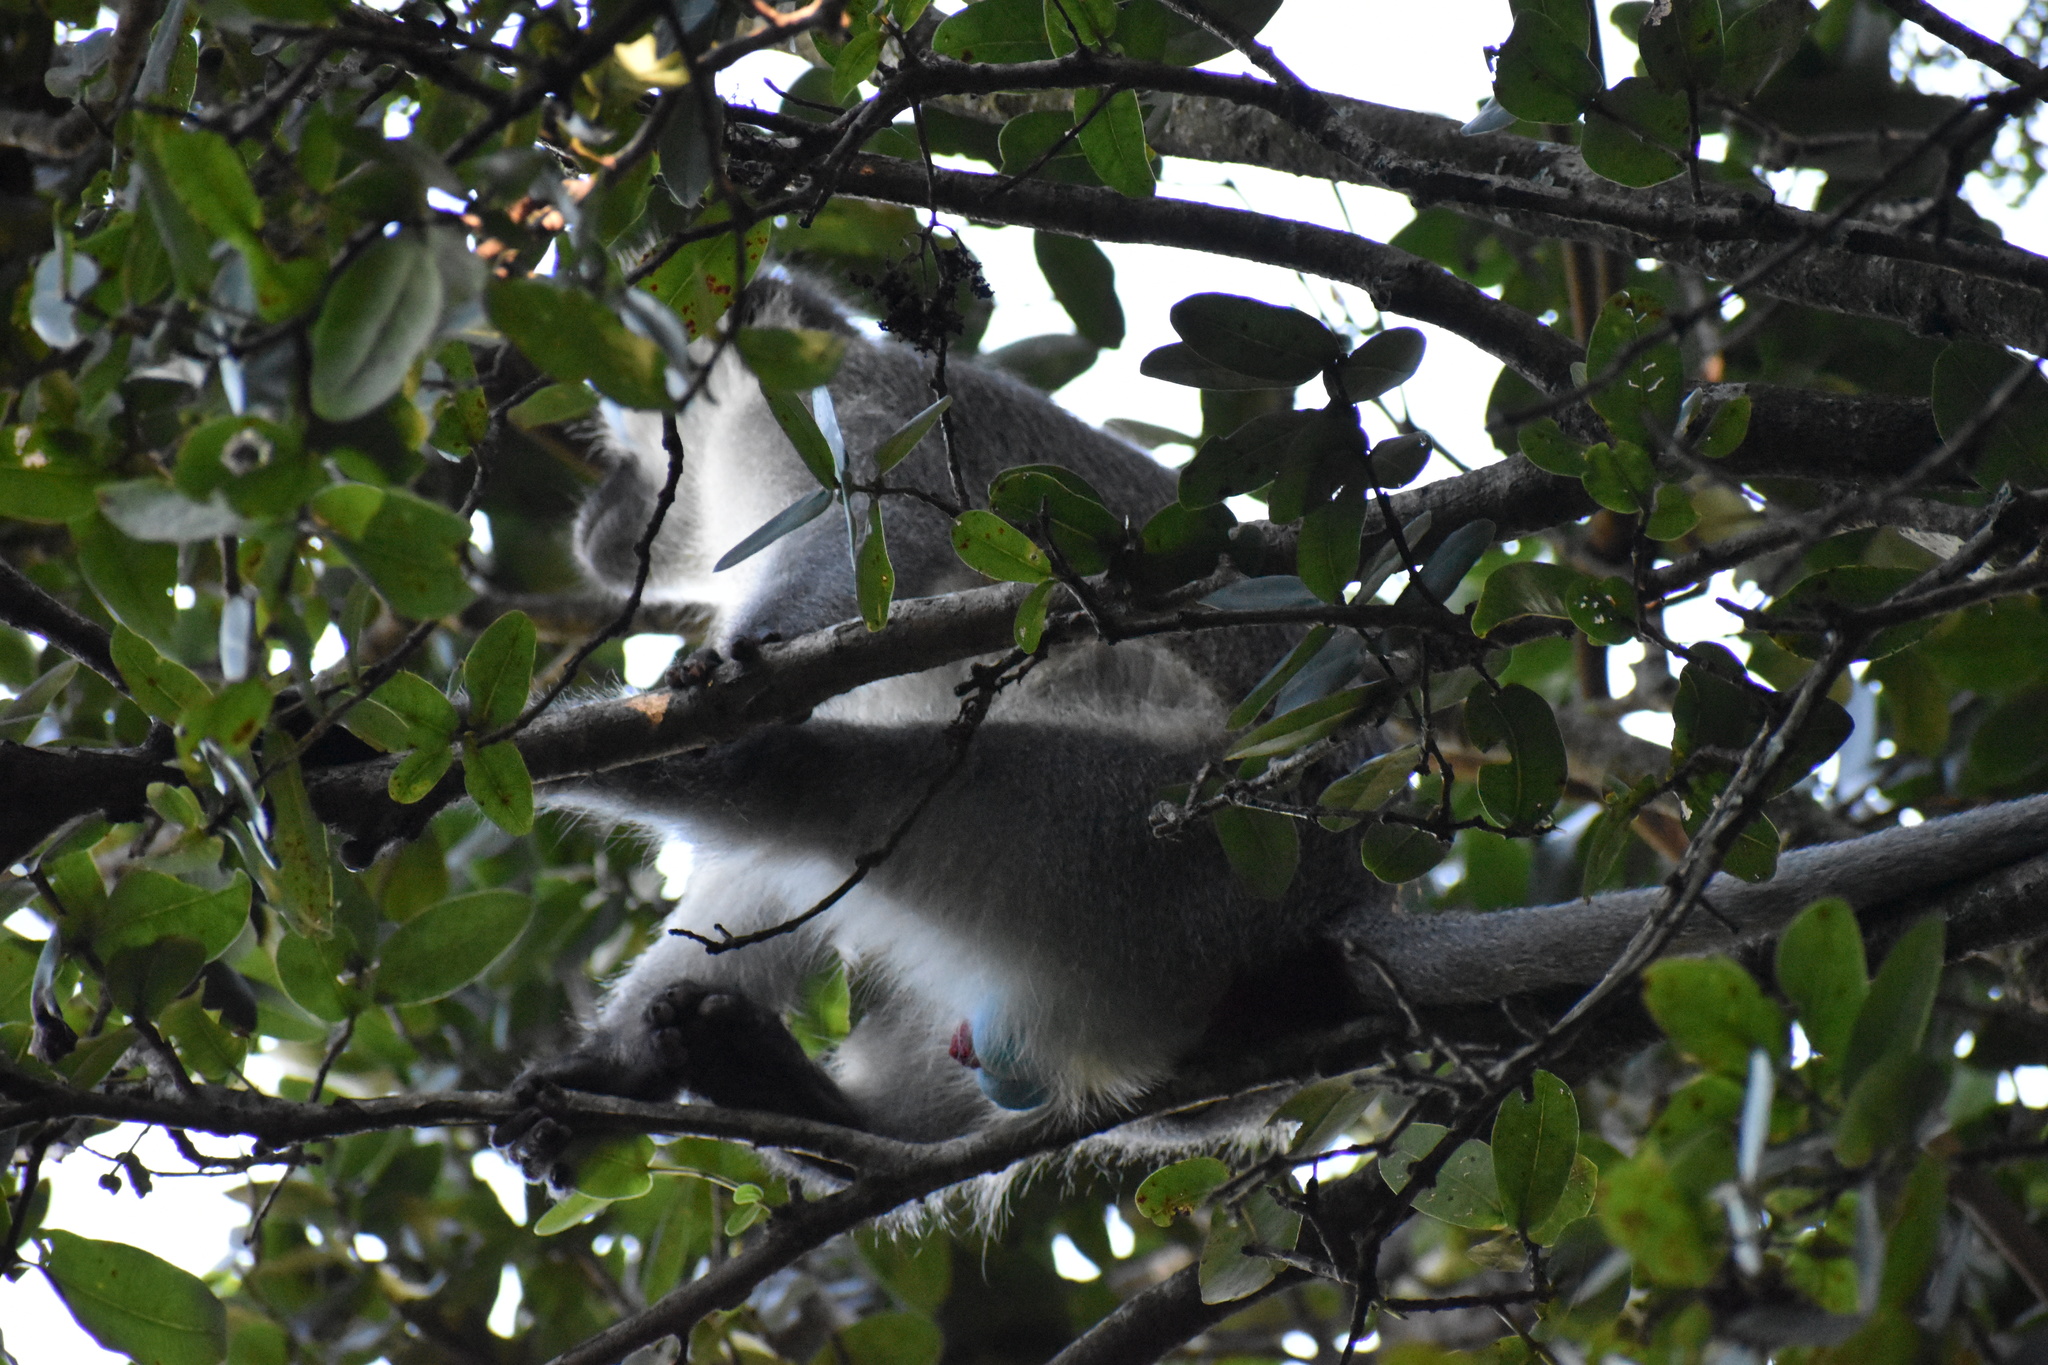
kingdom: Animalia
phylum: Chordata
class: Mammalia
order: Primates
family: Cercopithecidae
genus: Chlorocebus
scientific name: Chlorocebus pygerythrus
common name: Vervet monkey
